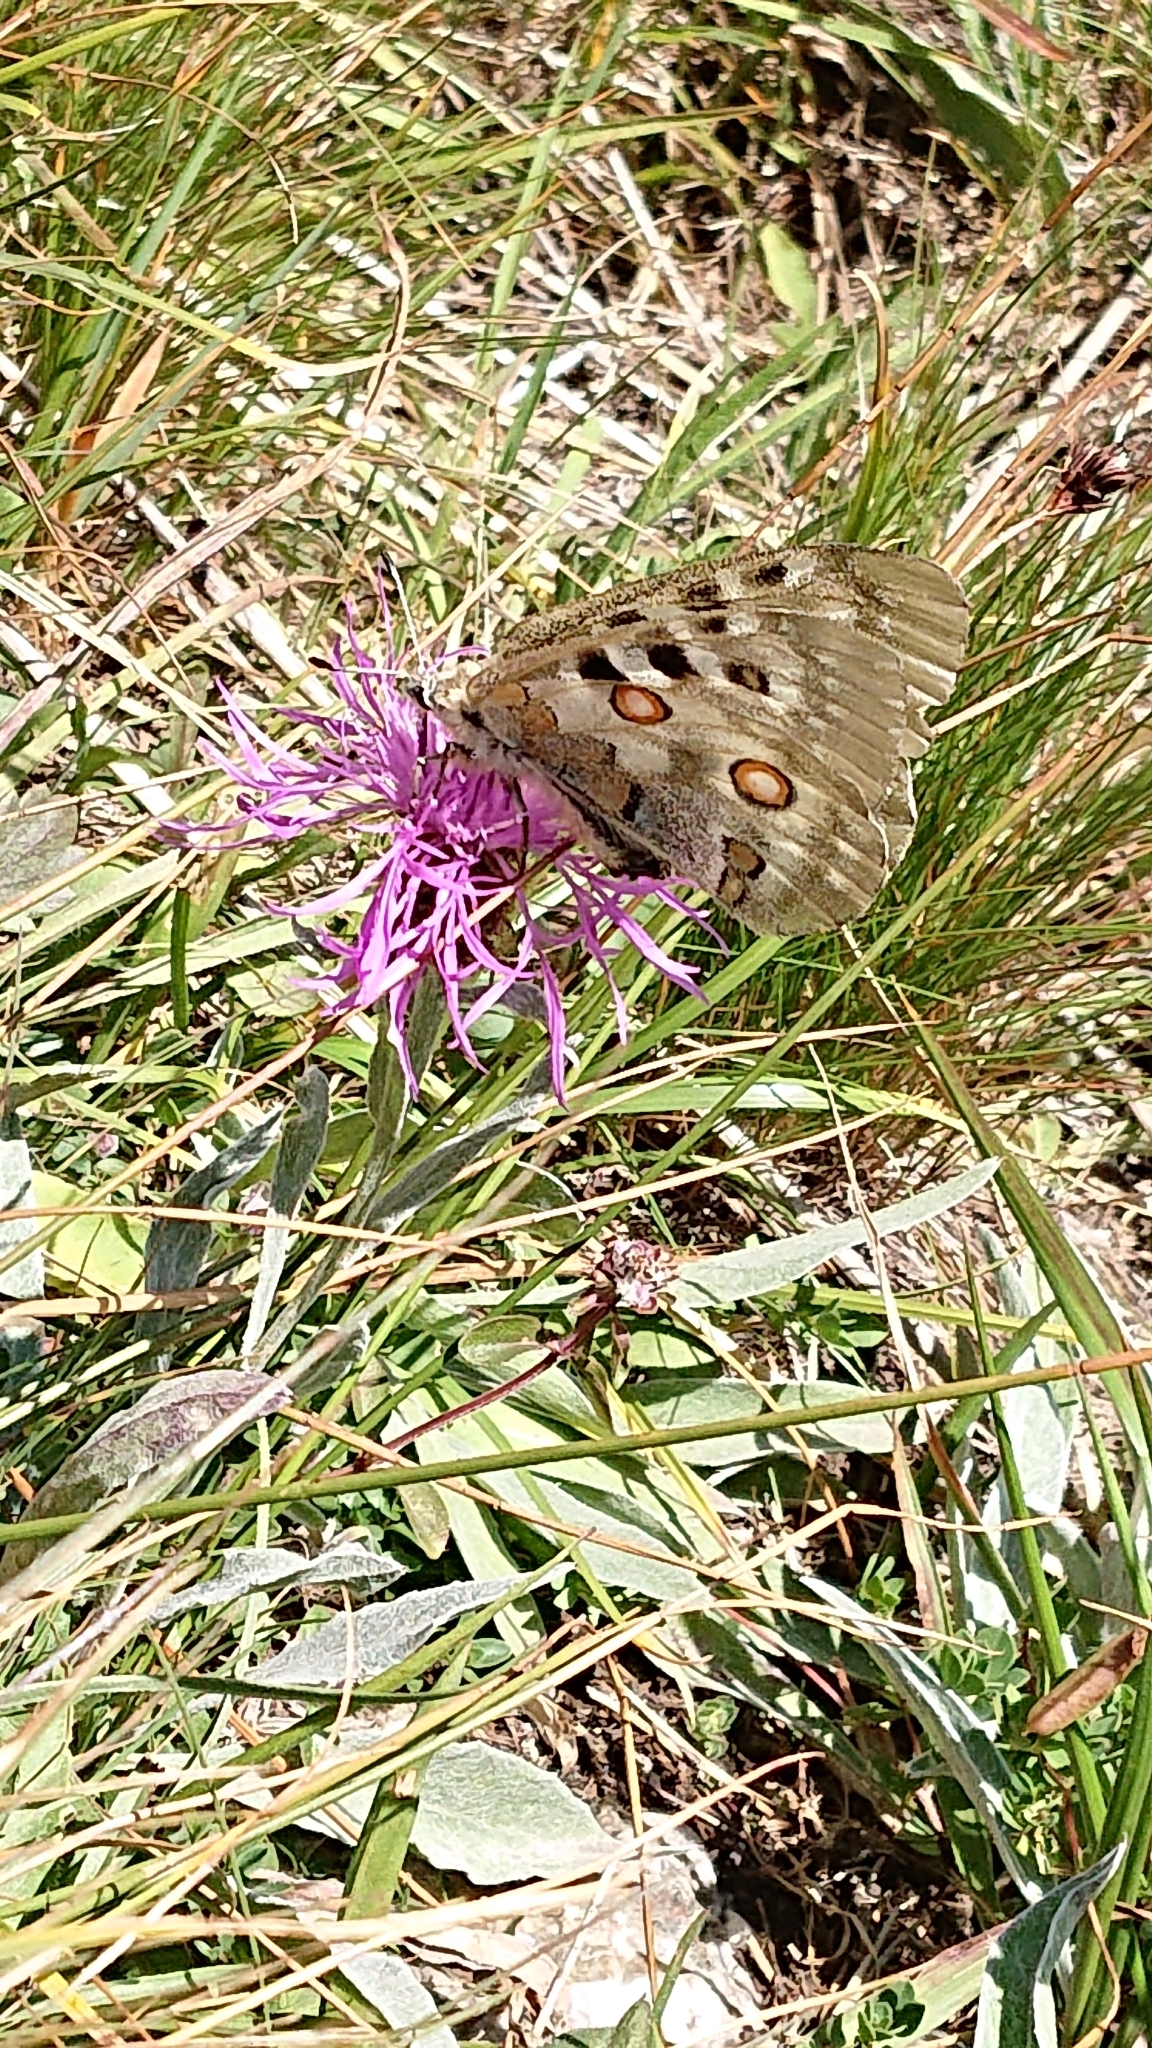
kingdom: Animalia
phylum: Arthropoda
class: Insecta
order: Lepidoptera
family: Papilionidae
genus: Parnassius
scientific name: Parnassius apollo
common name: Apollo
